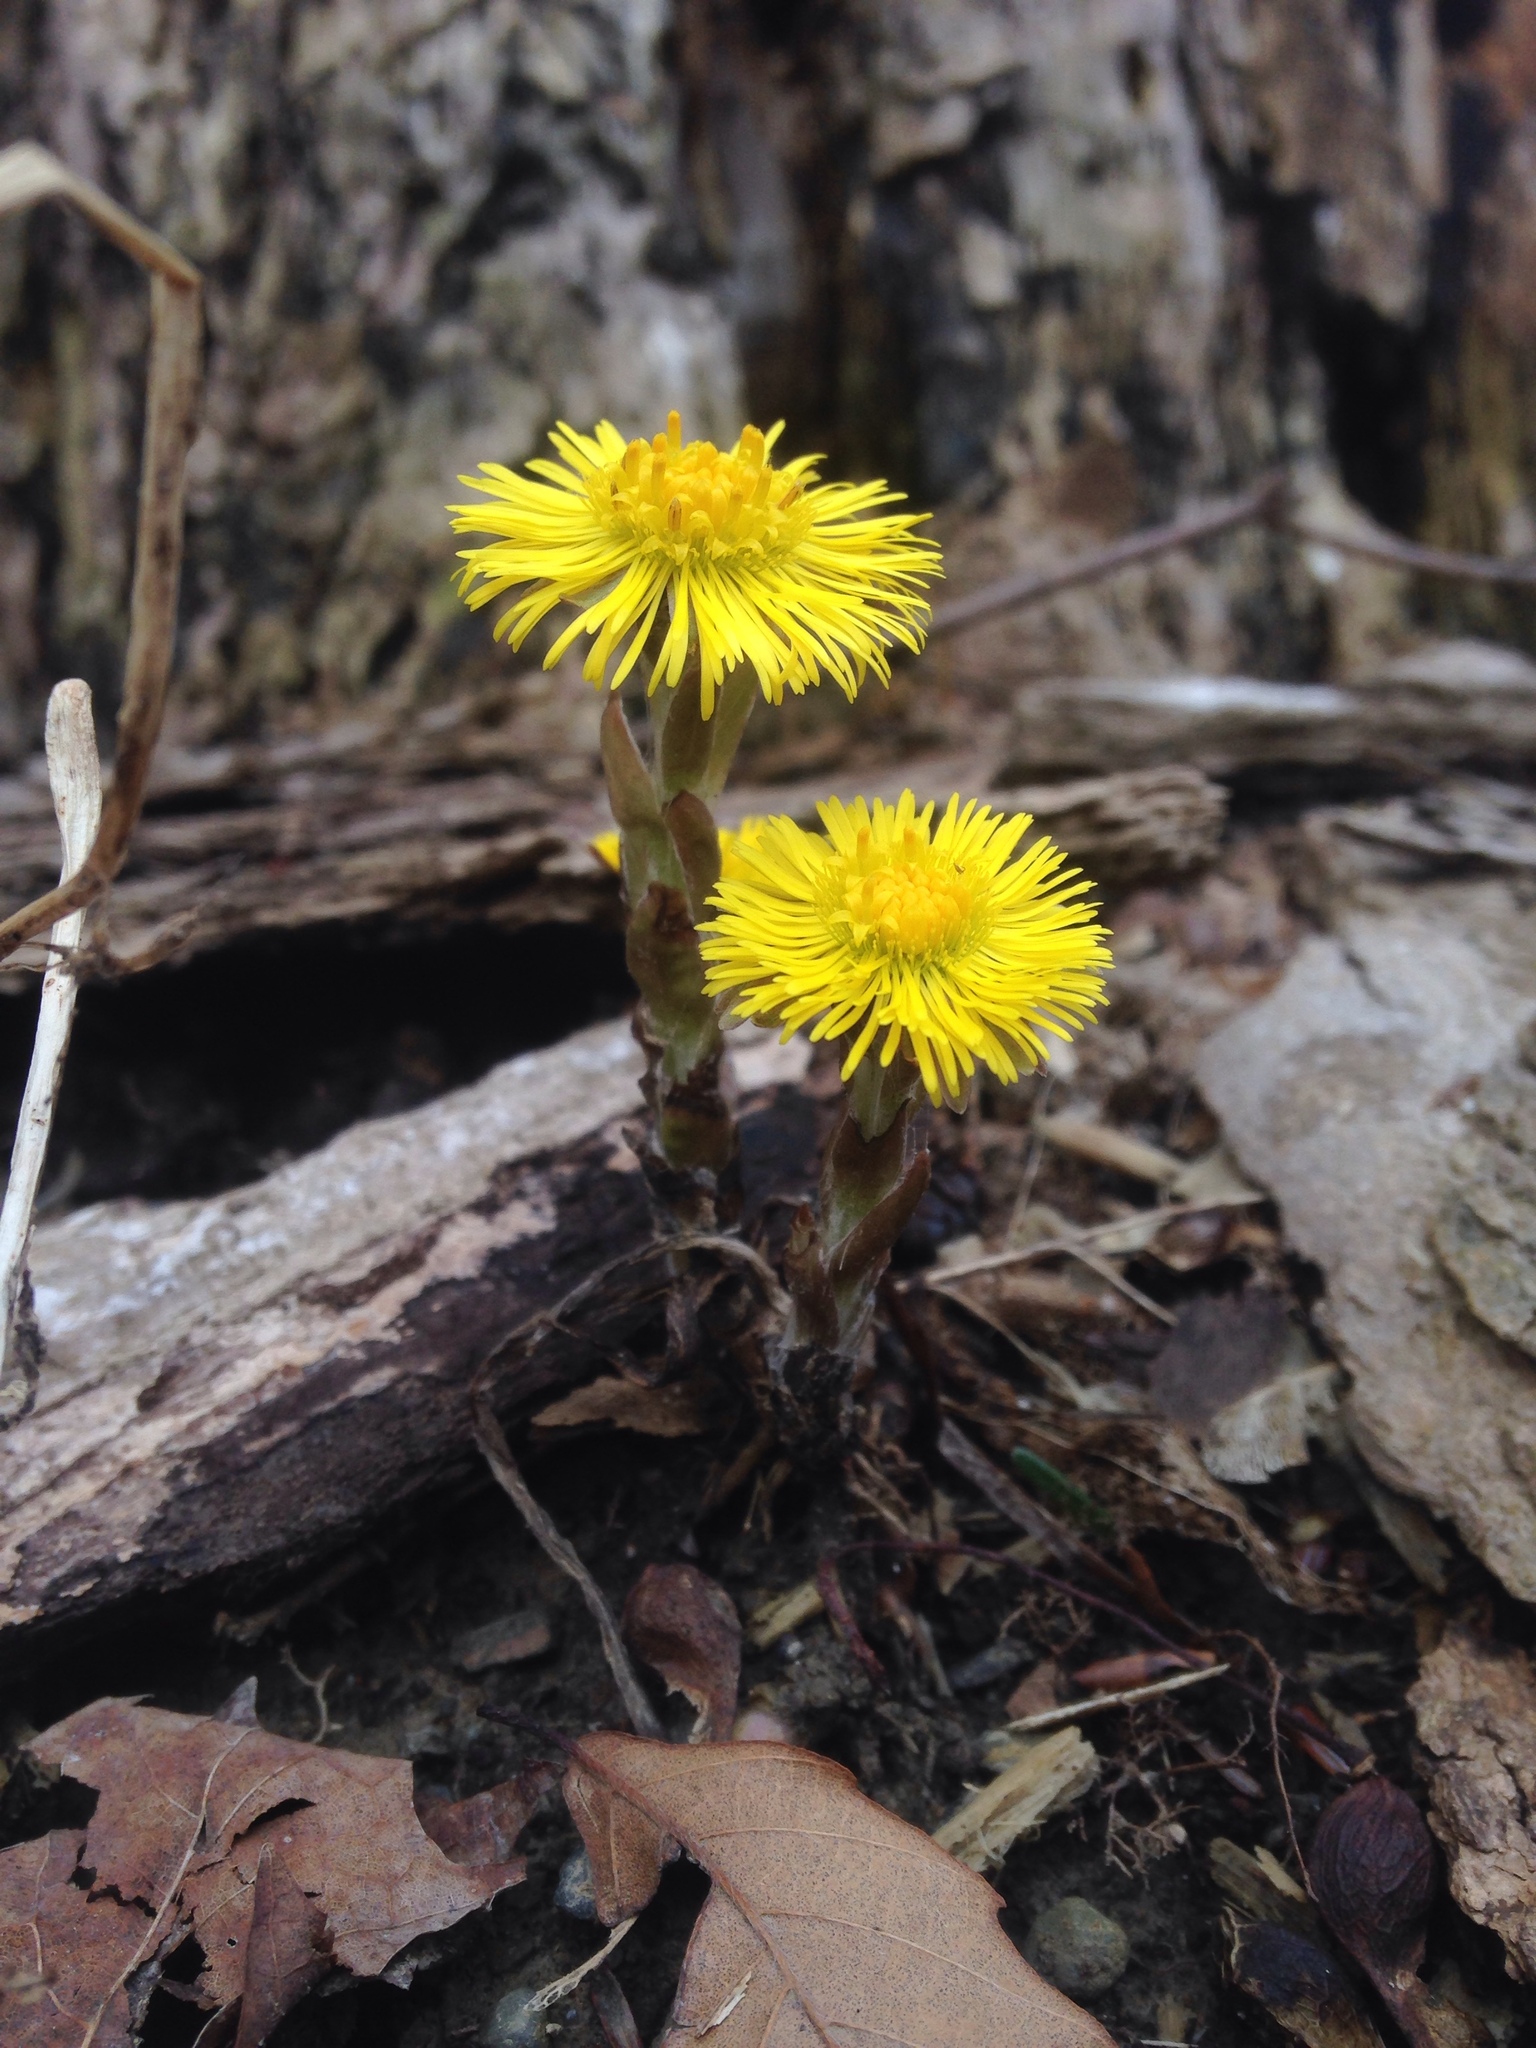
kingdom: Plantae
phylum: Tracheophyta
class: Magnoliopsida
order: Asterales
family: Asteraceae
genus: Tussilago
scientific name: Tussilago farfara
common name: Coltsfoot
